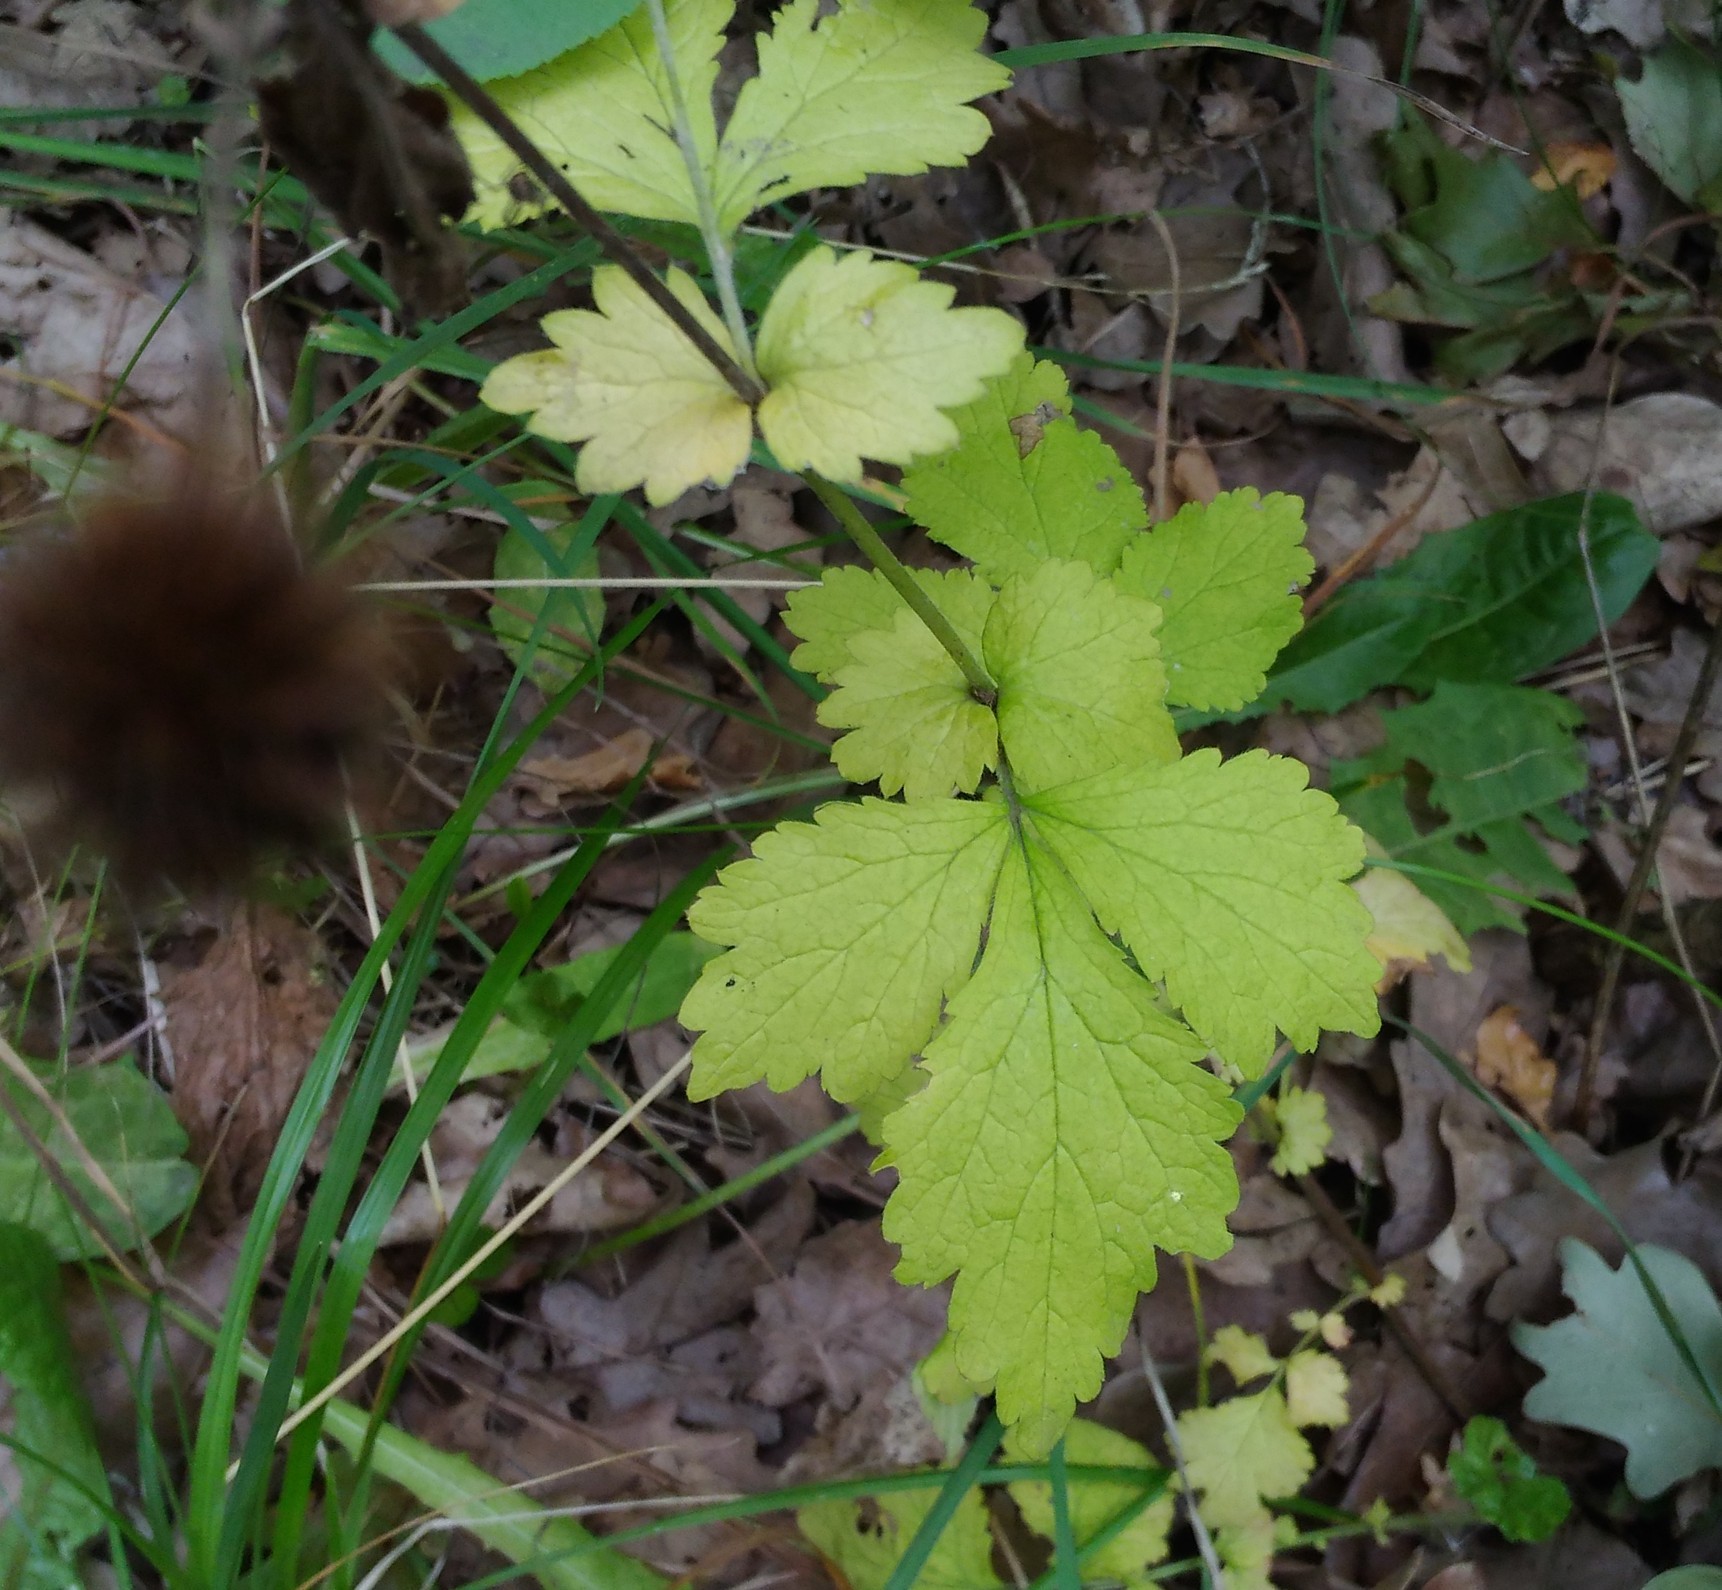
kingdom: Plantae
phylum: Tracheophyta
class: Magnoliopsida
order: Rosales
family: Rosaceae
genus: Geum
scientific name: Geum urbanum
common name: Wood avens
